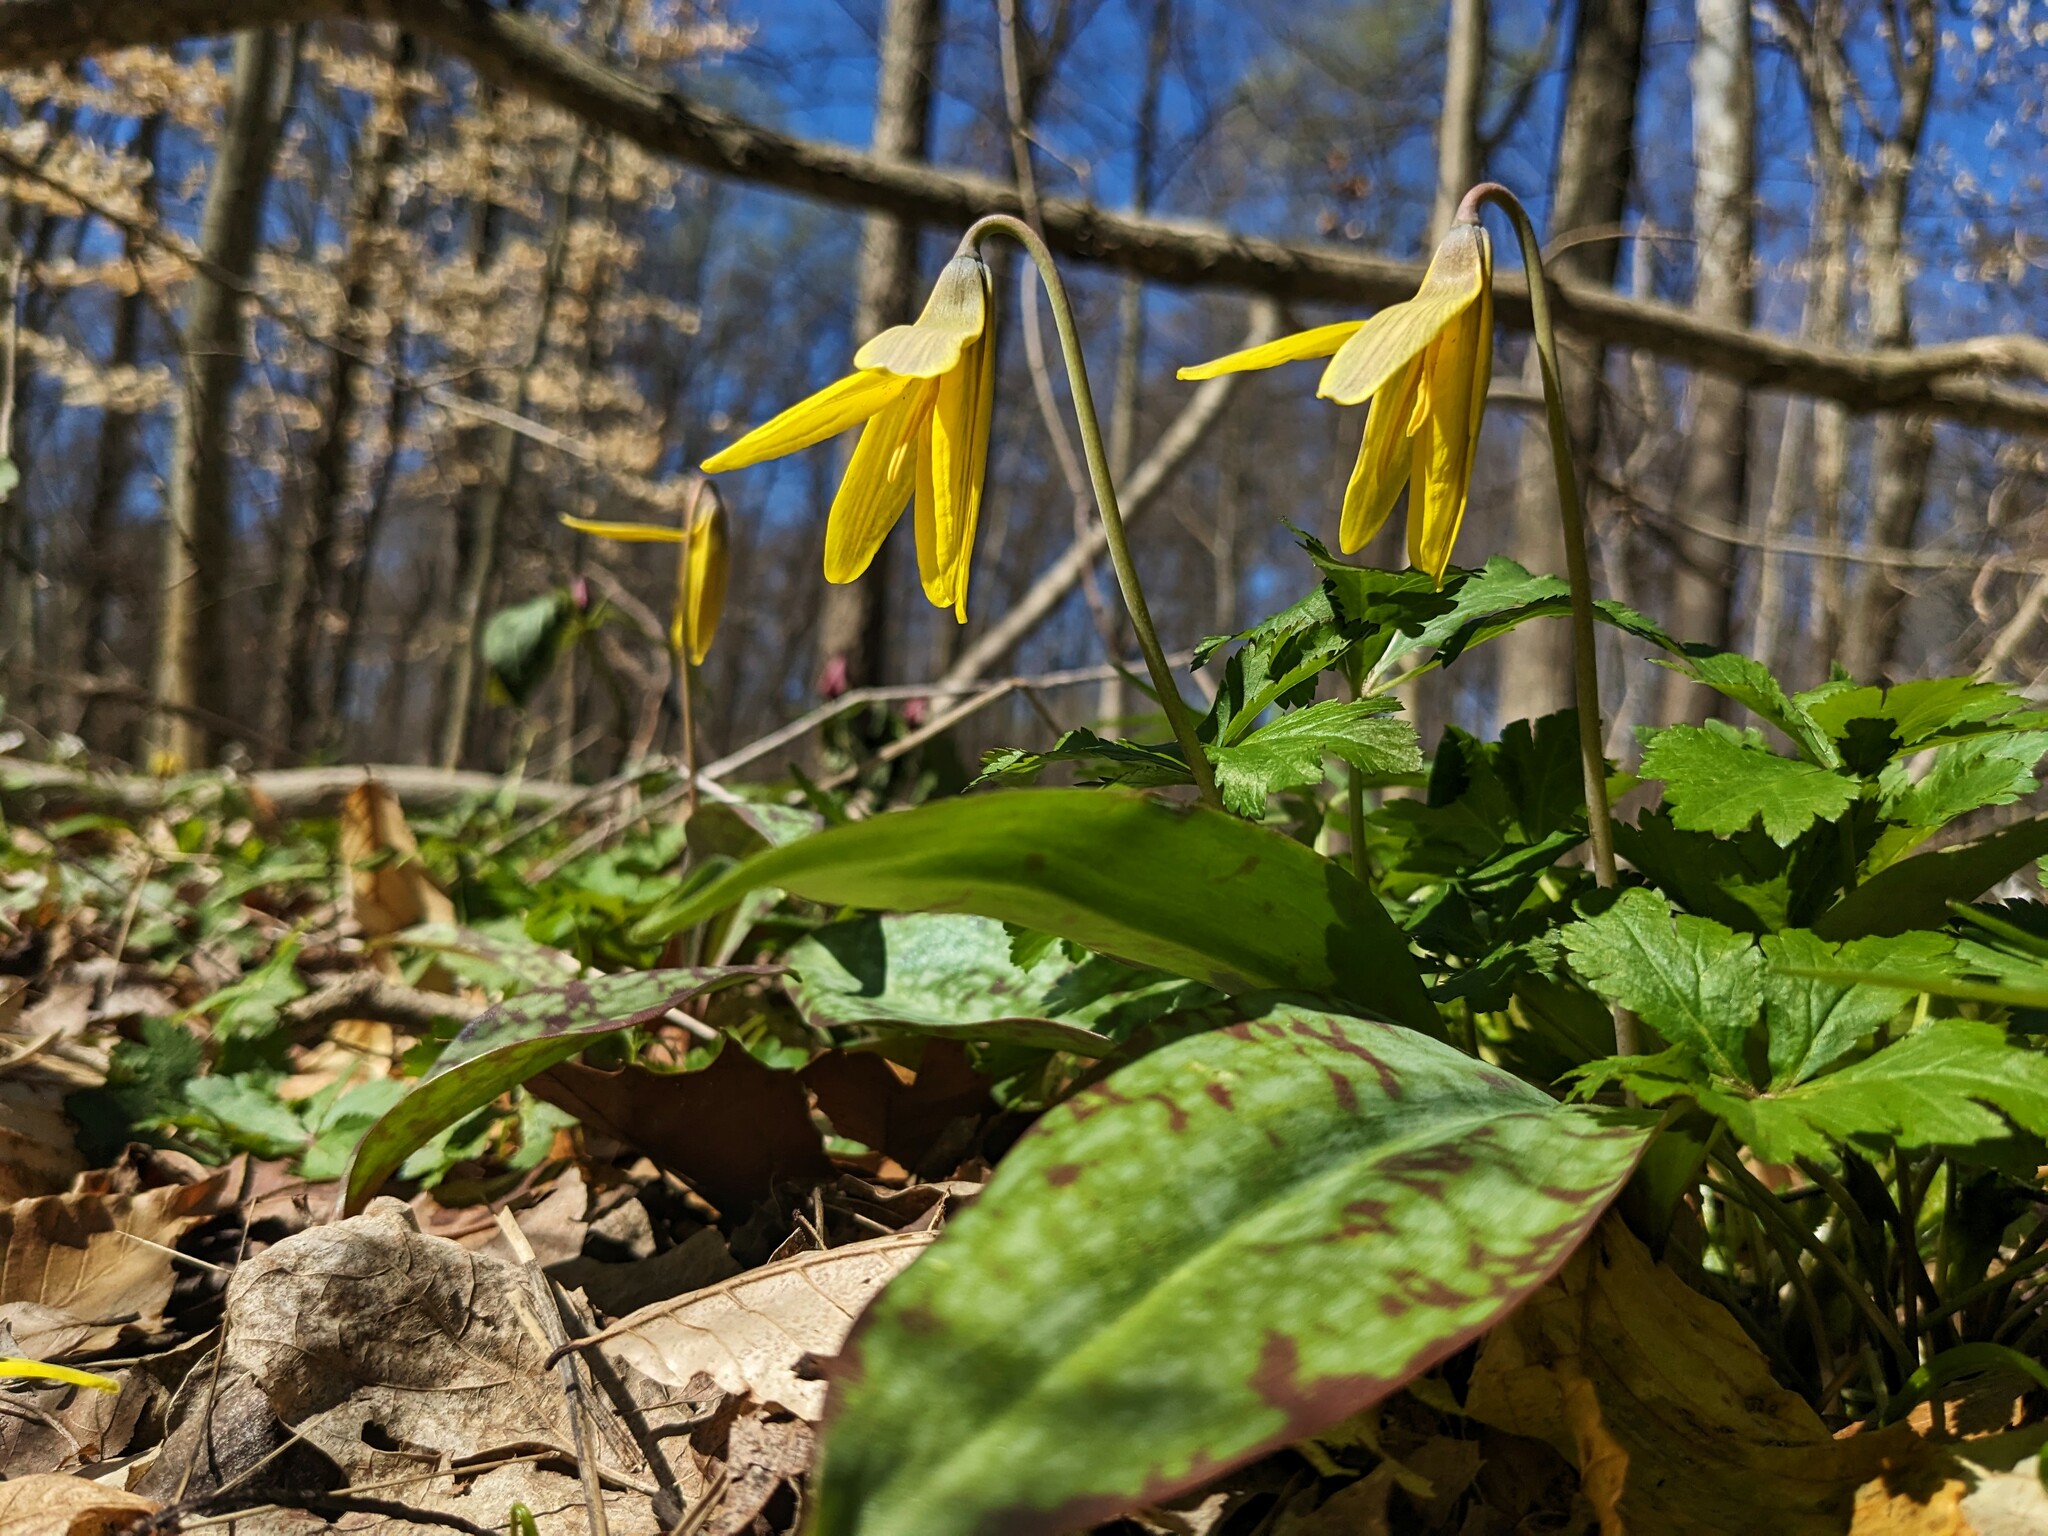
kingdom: Plantae
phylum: Tracheophyta
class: Liliopsida
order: Liliales
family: Liliaceae
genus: Erythronium
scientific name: Erythronium americanum
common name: Yellow adder's-tongue
